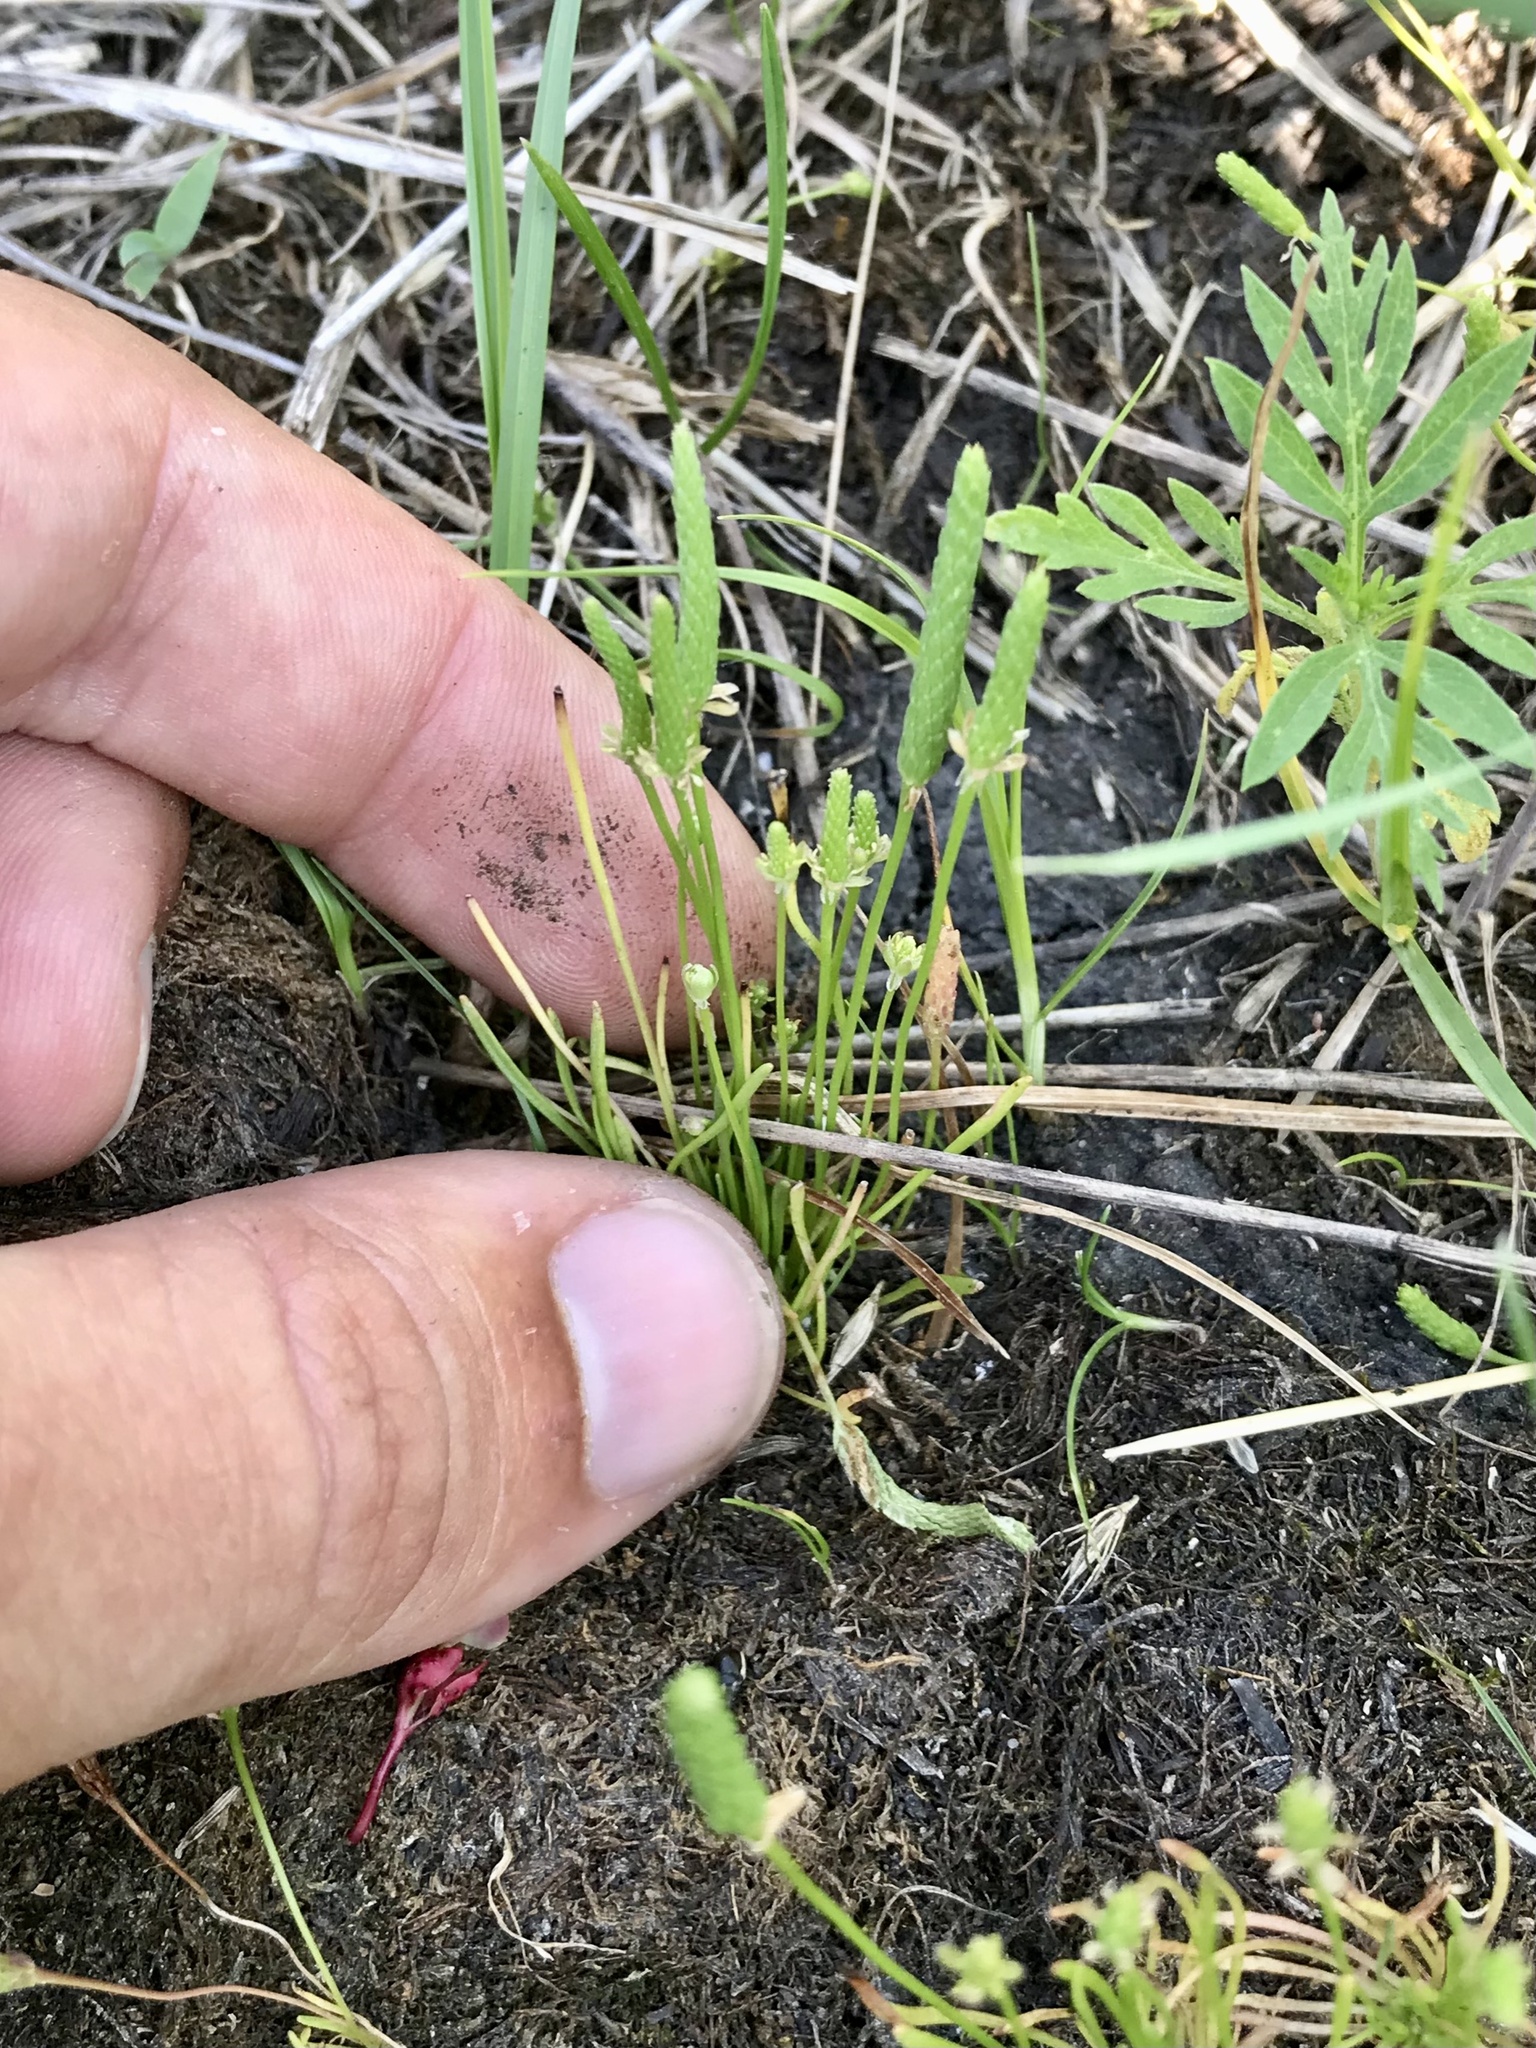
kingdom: Plantae
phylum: Tracheophyta
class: Magnoliopsida
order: Ranunculales
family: Ranunculaceae
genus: Myosurus
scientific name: Myosurus minimus
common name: Mousetail
